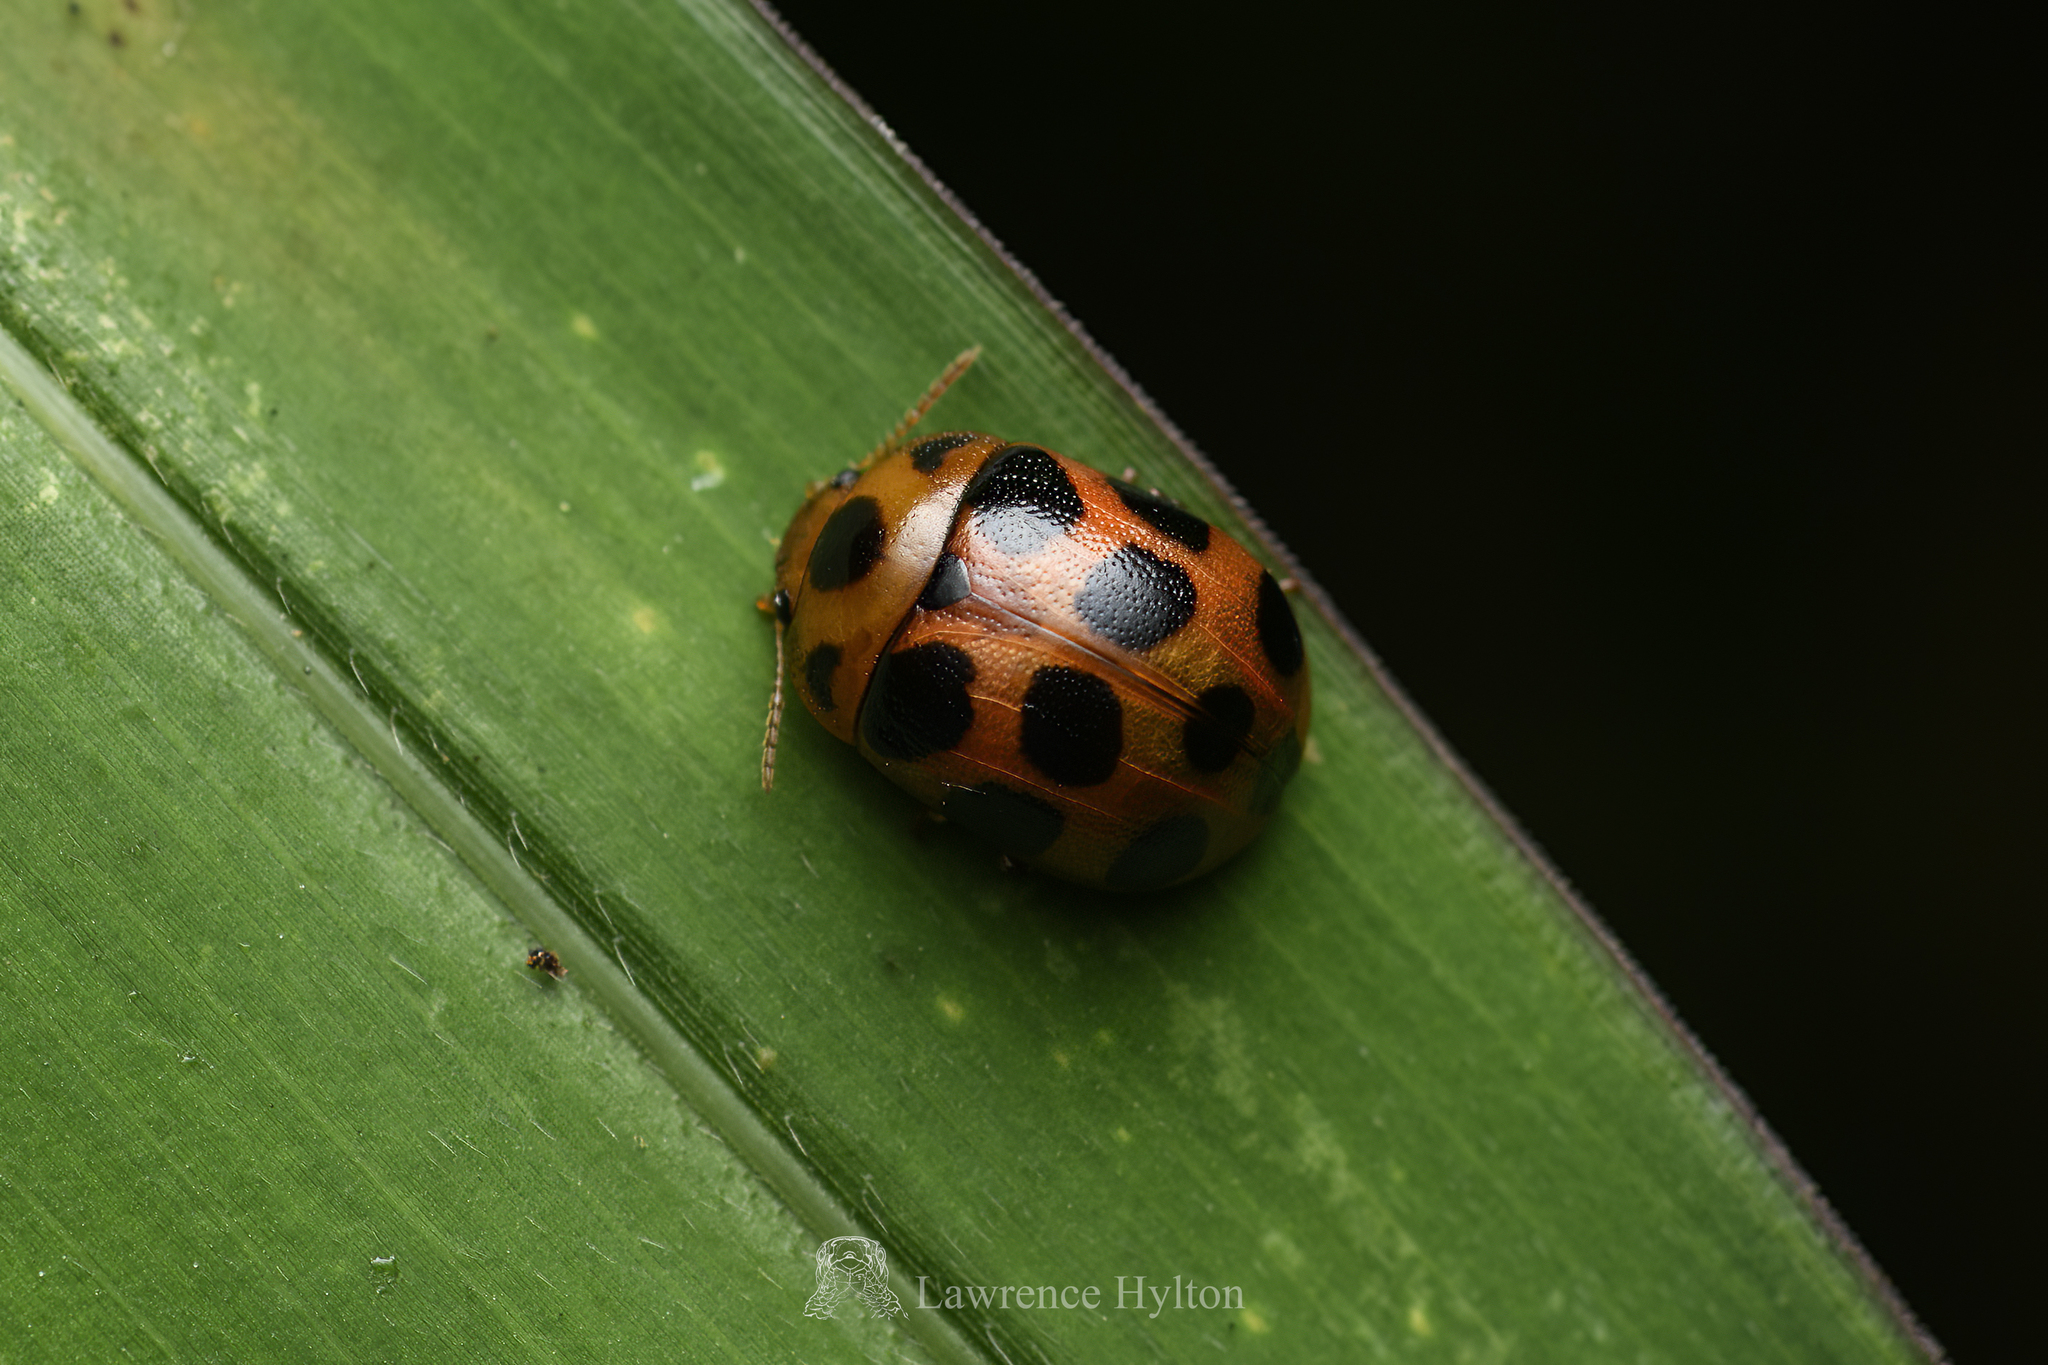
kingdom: Animalia
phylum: Arthropoda
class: Insecta
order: Coleoptera
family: Chrysomelidae
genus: Gonioctena
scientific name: Gonioctena tredecimmaculata
